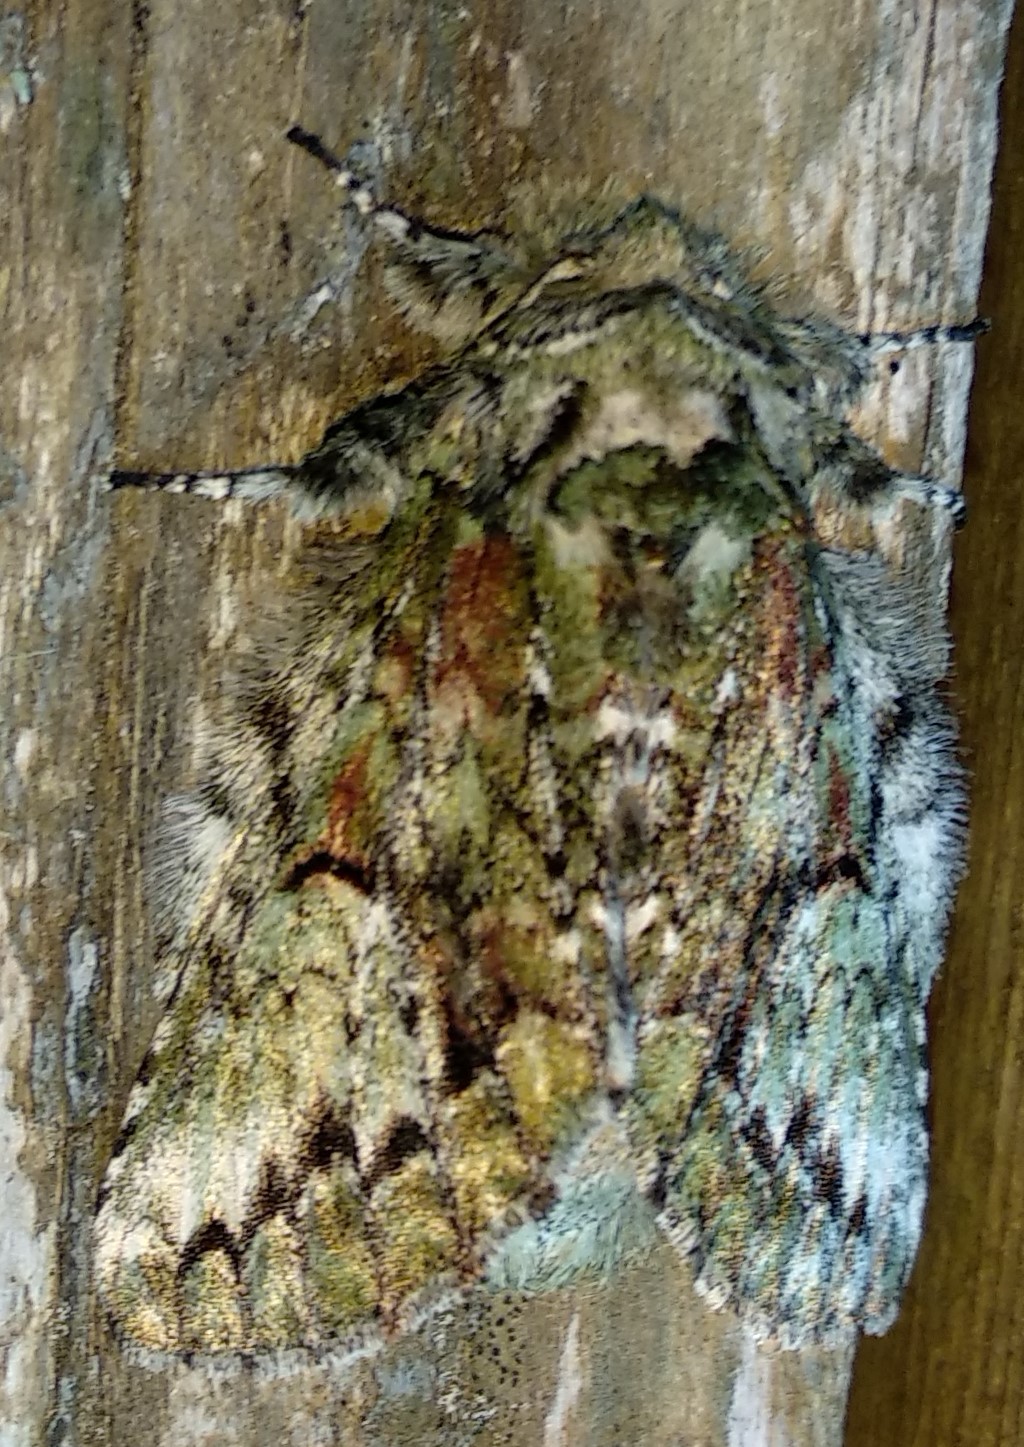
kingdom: Animalia
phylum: Arthropoda
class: Insecta
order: Lepidoptera
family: Notodontidae
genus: Heterocampa
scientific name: Heterocampa
